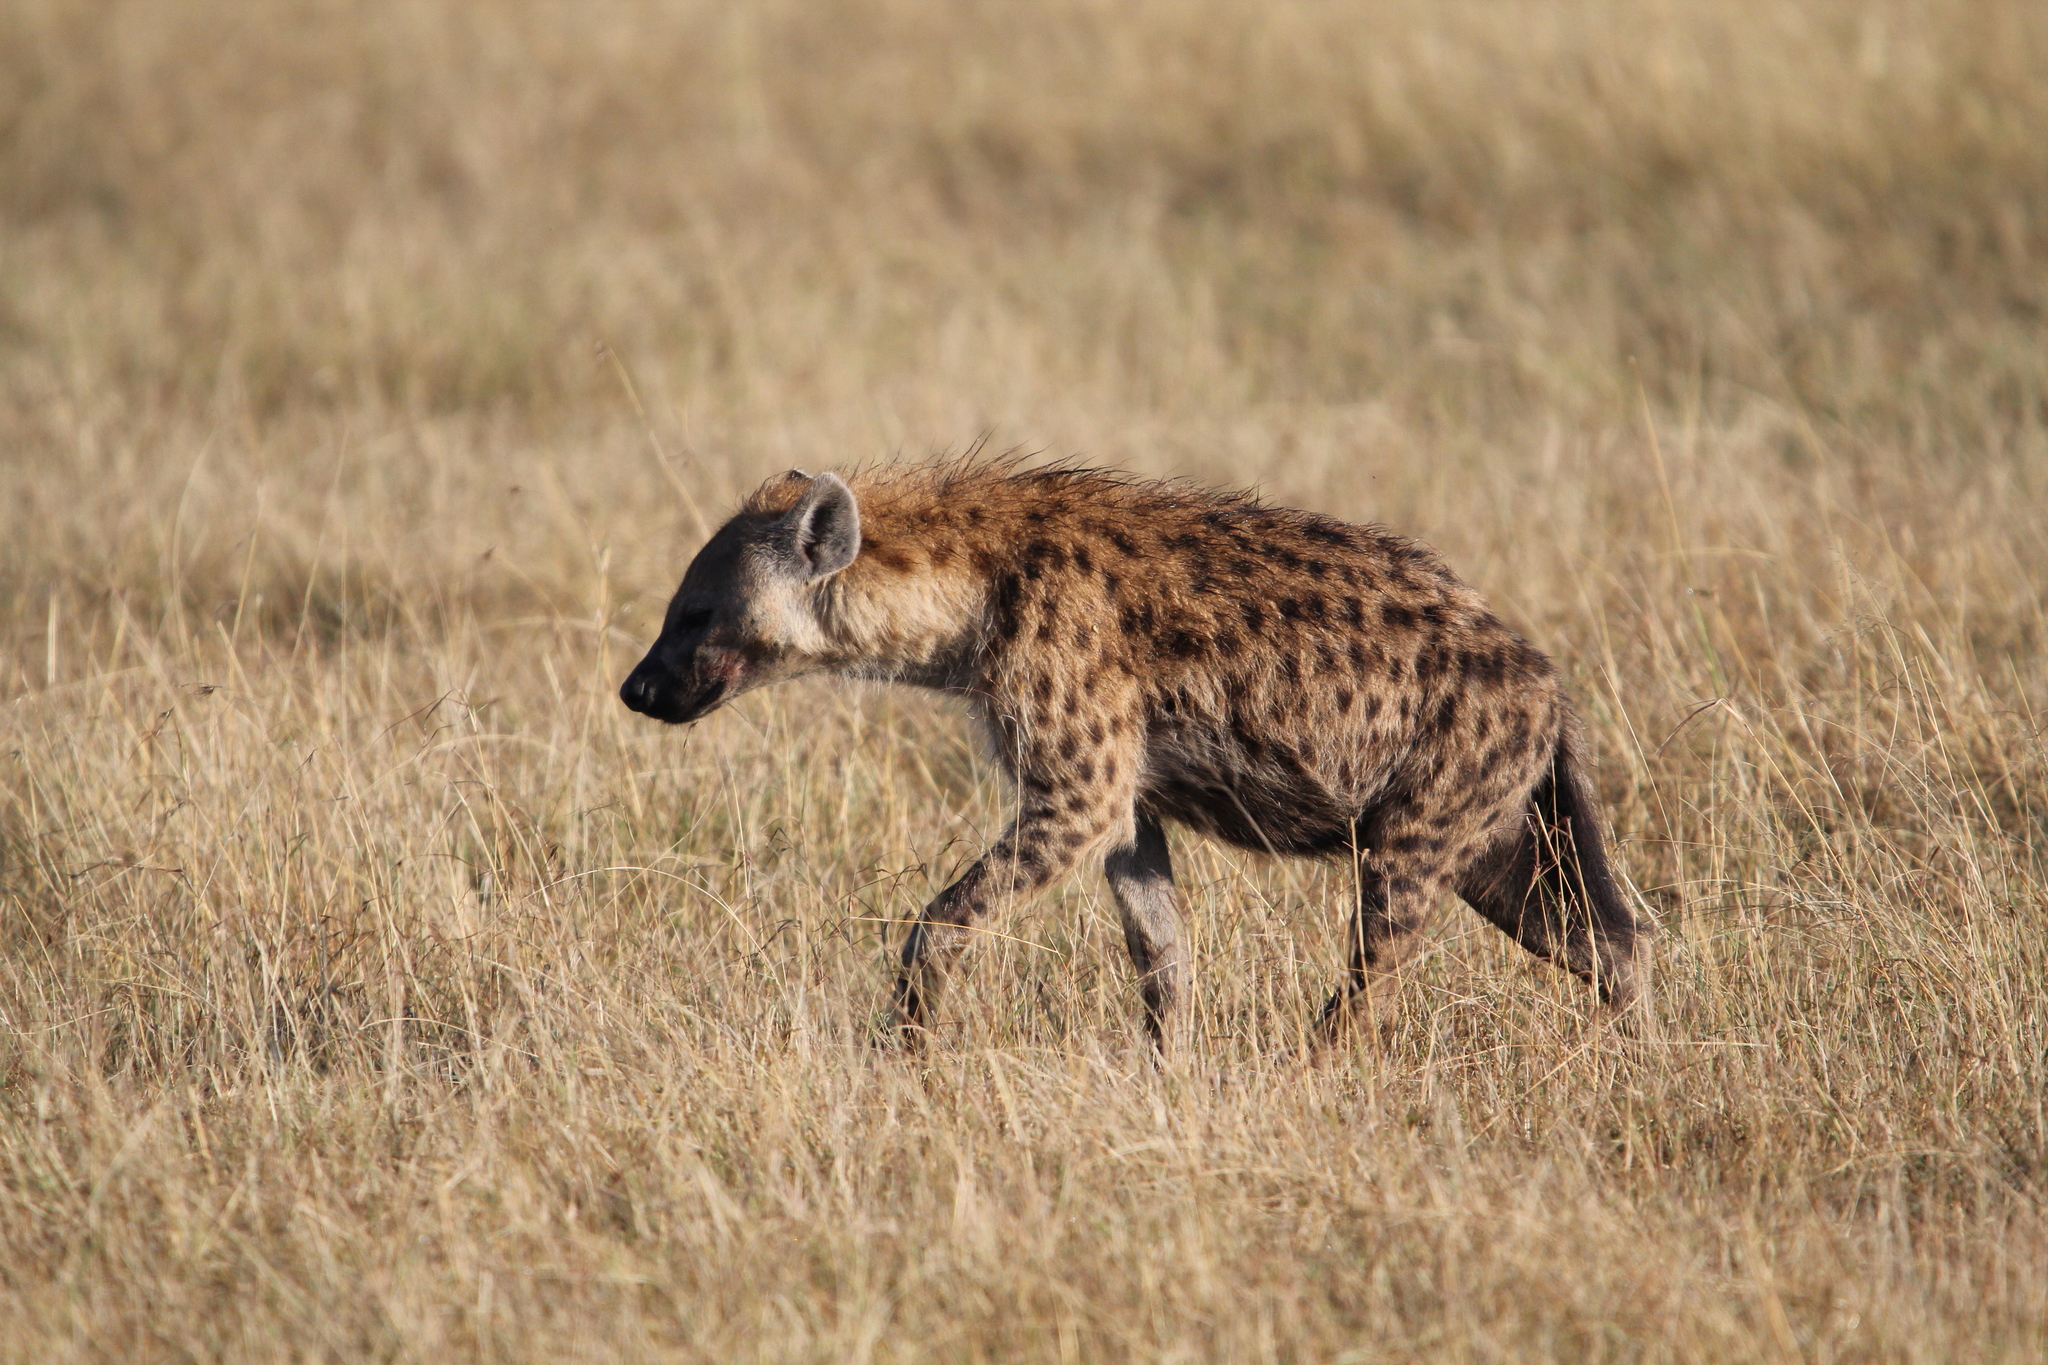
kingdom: Animalia
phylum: Chordata
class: Mammalia
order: Carnivora
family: Hyaenidae
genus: Crocuta
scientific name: Crocuta crocuta
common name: Spotted hyaena
